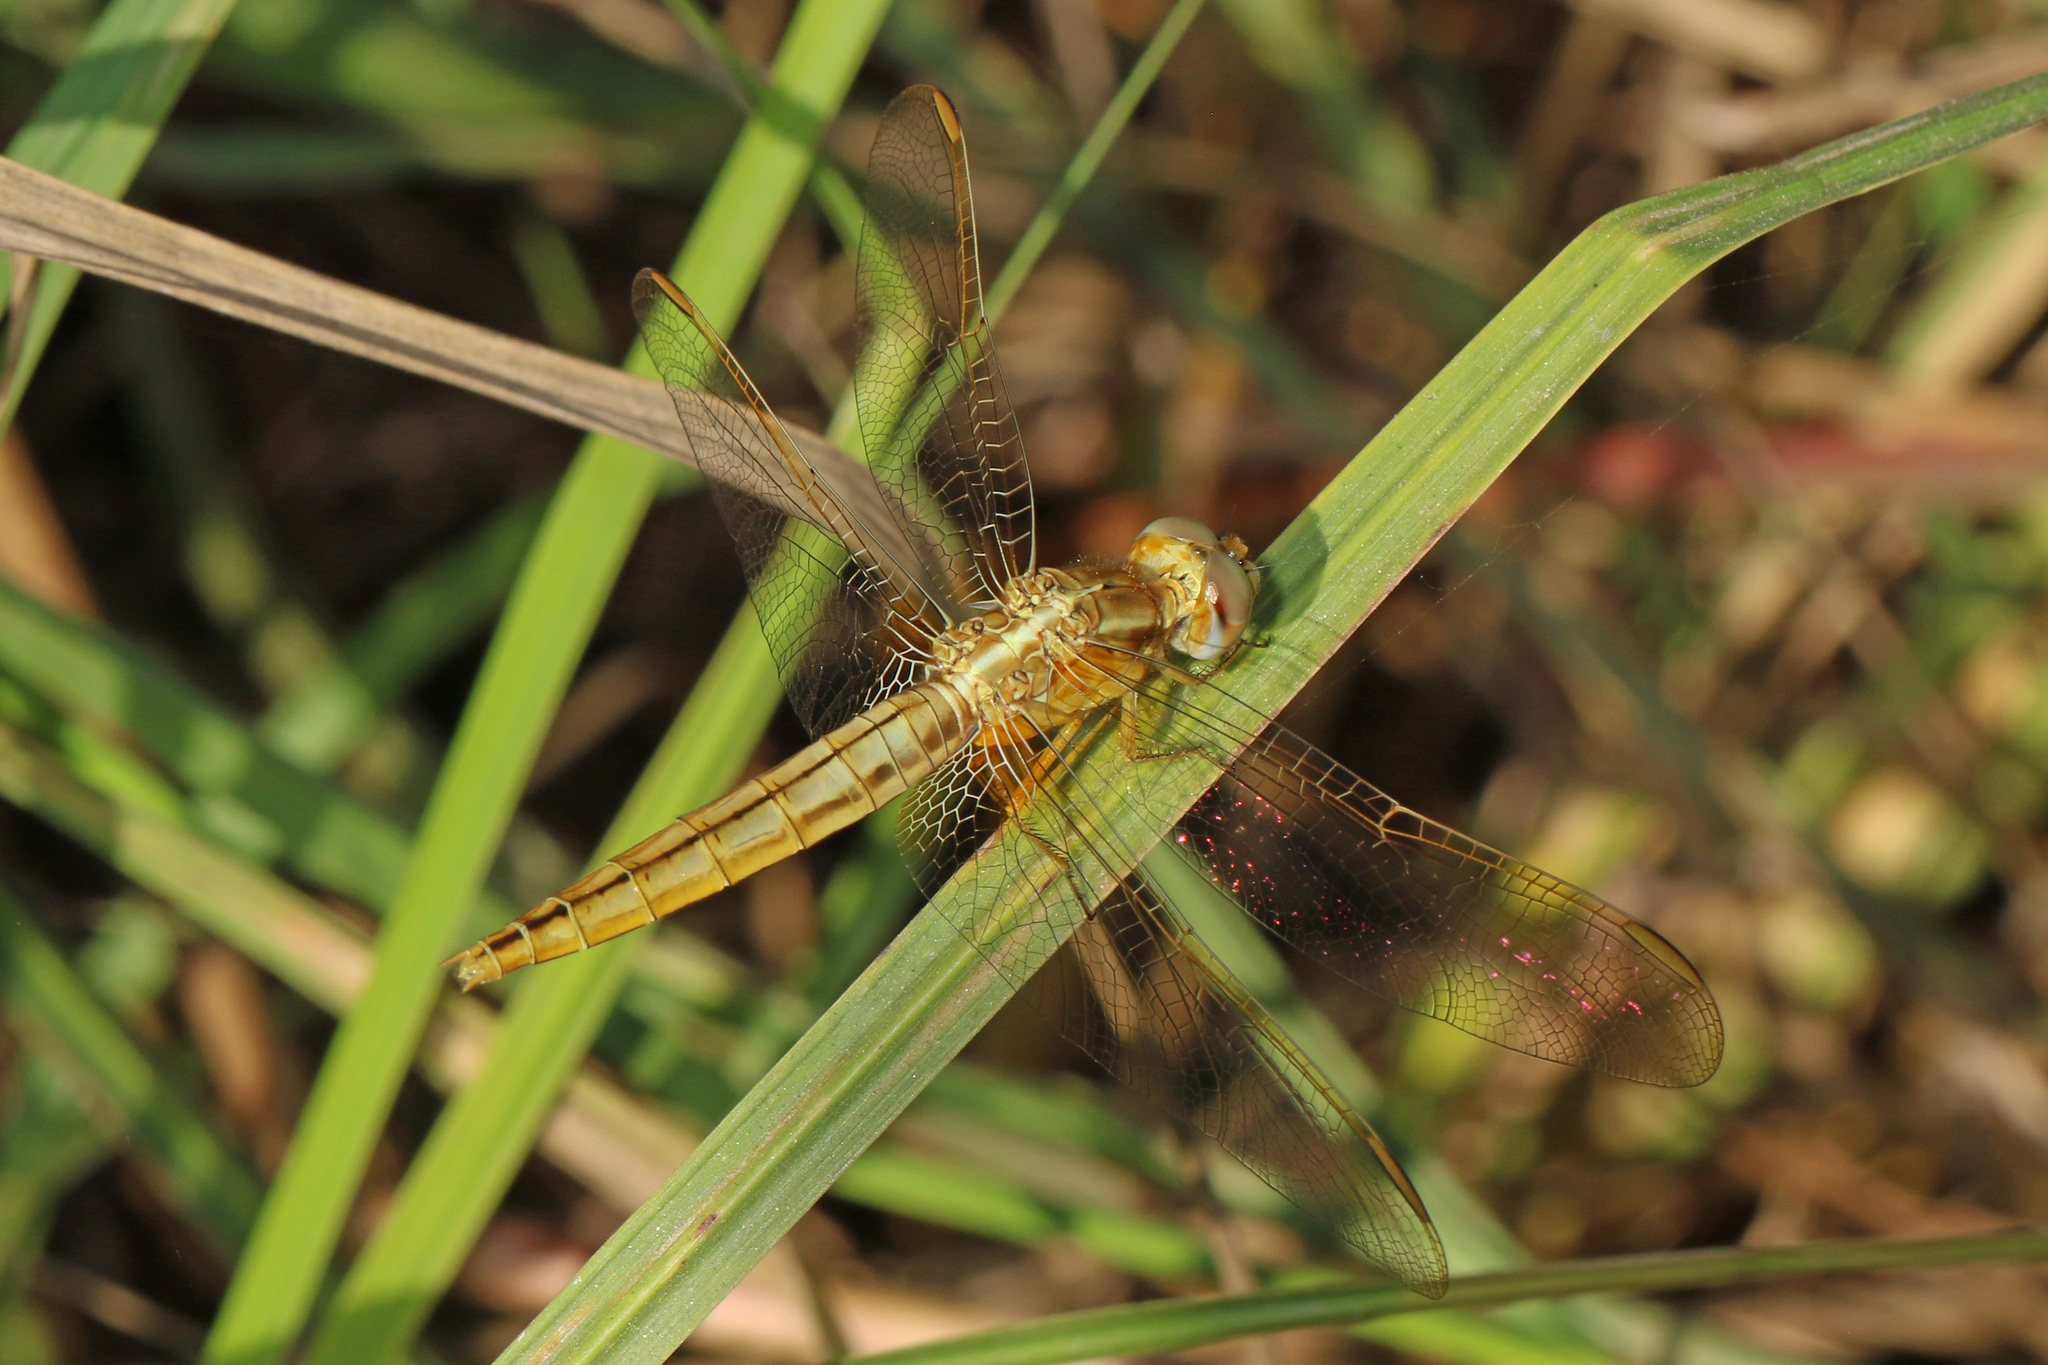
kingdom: Animalia
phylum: Arthropoda
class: Insecta
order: Odonata
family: Libellulidae
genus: Crocothemis
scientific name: Crocothemis erythraea
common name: Scarlet dragonfly
